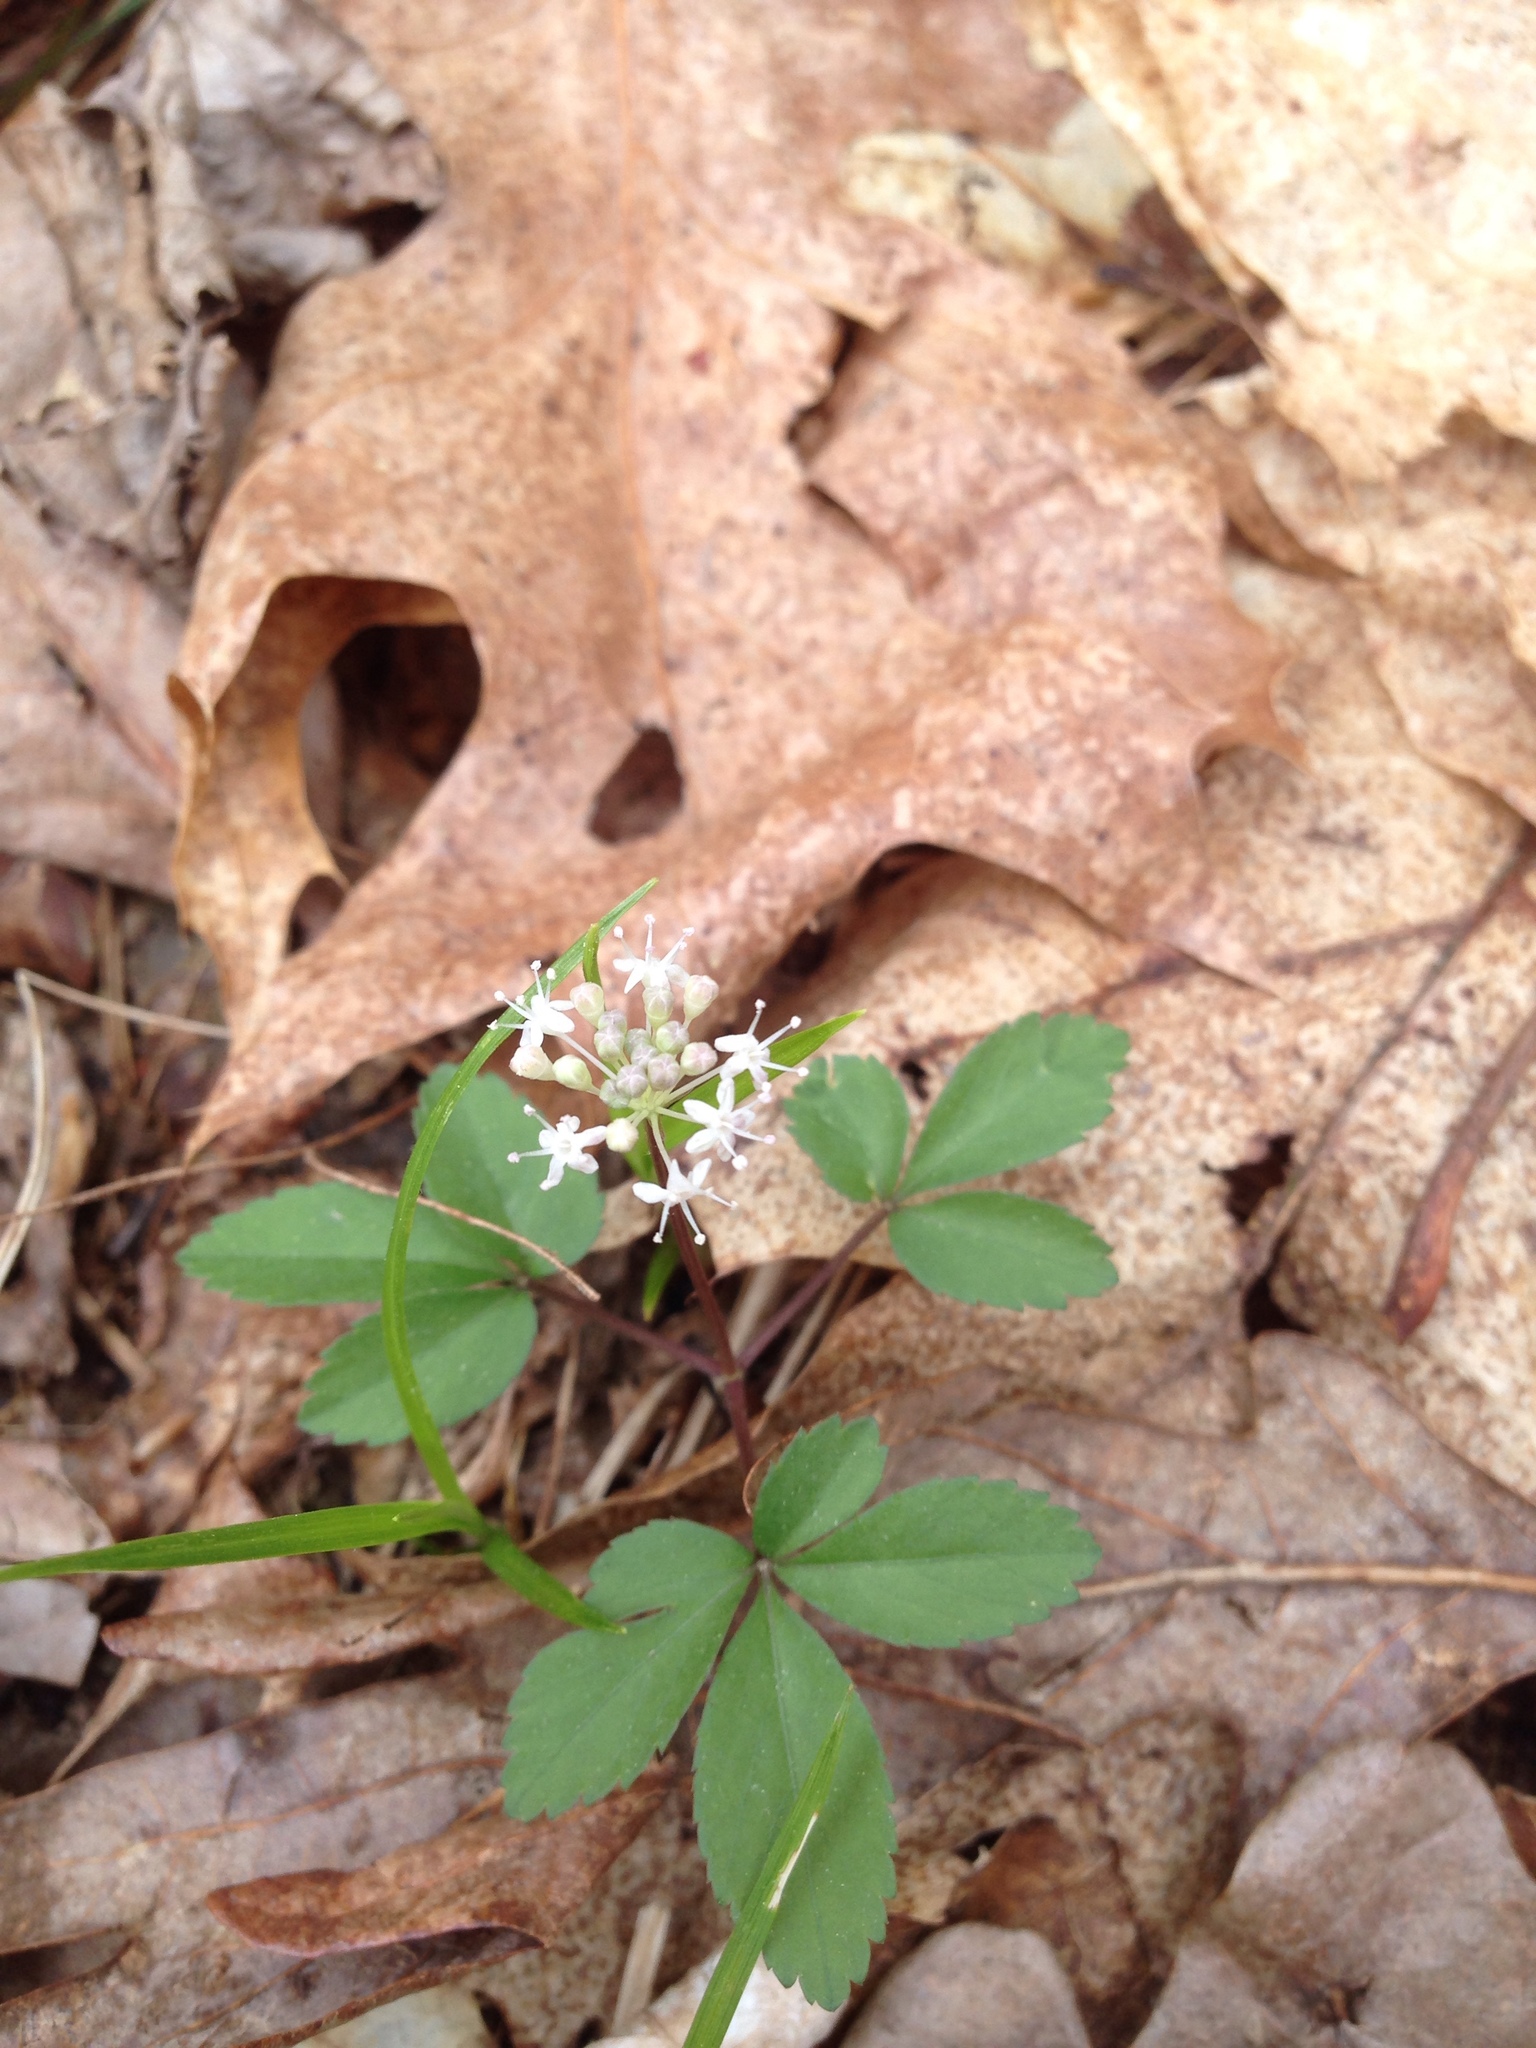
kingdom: Plantae
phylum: Tracheophyta
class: Magnoliopsida
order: Apiales
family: Araliaceae
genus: Panax
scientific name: Panax trifolius
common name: Dwarf ginseng
